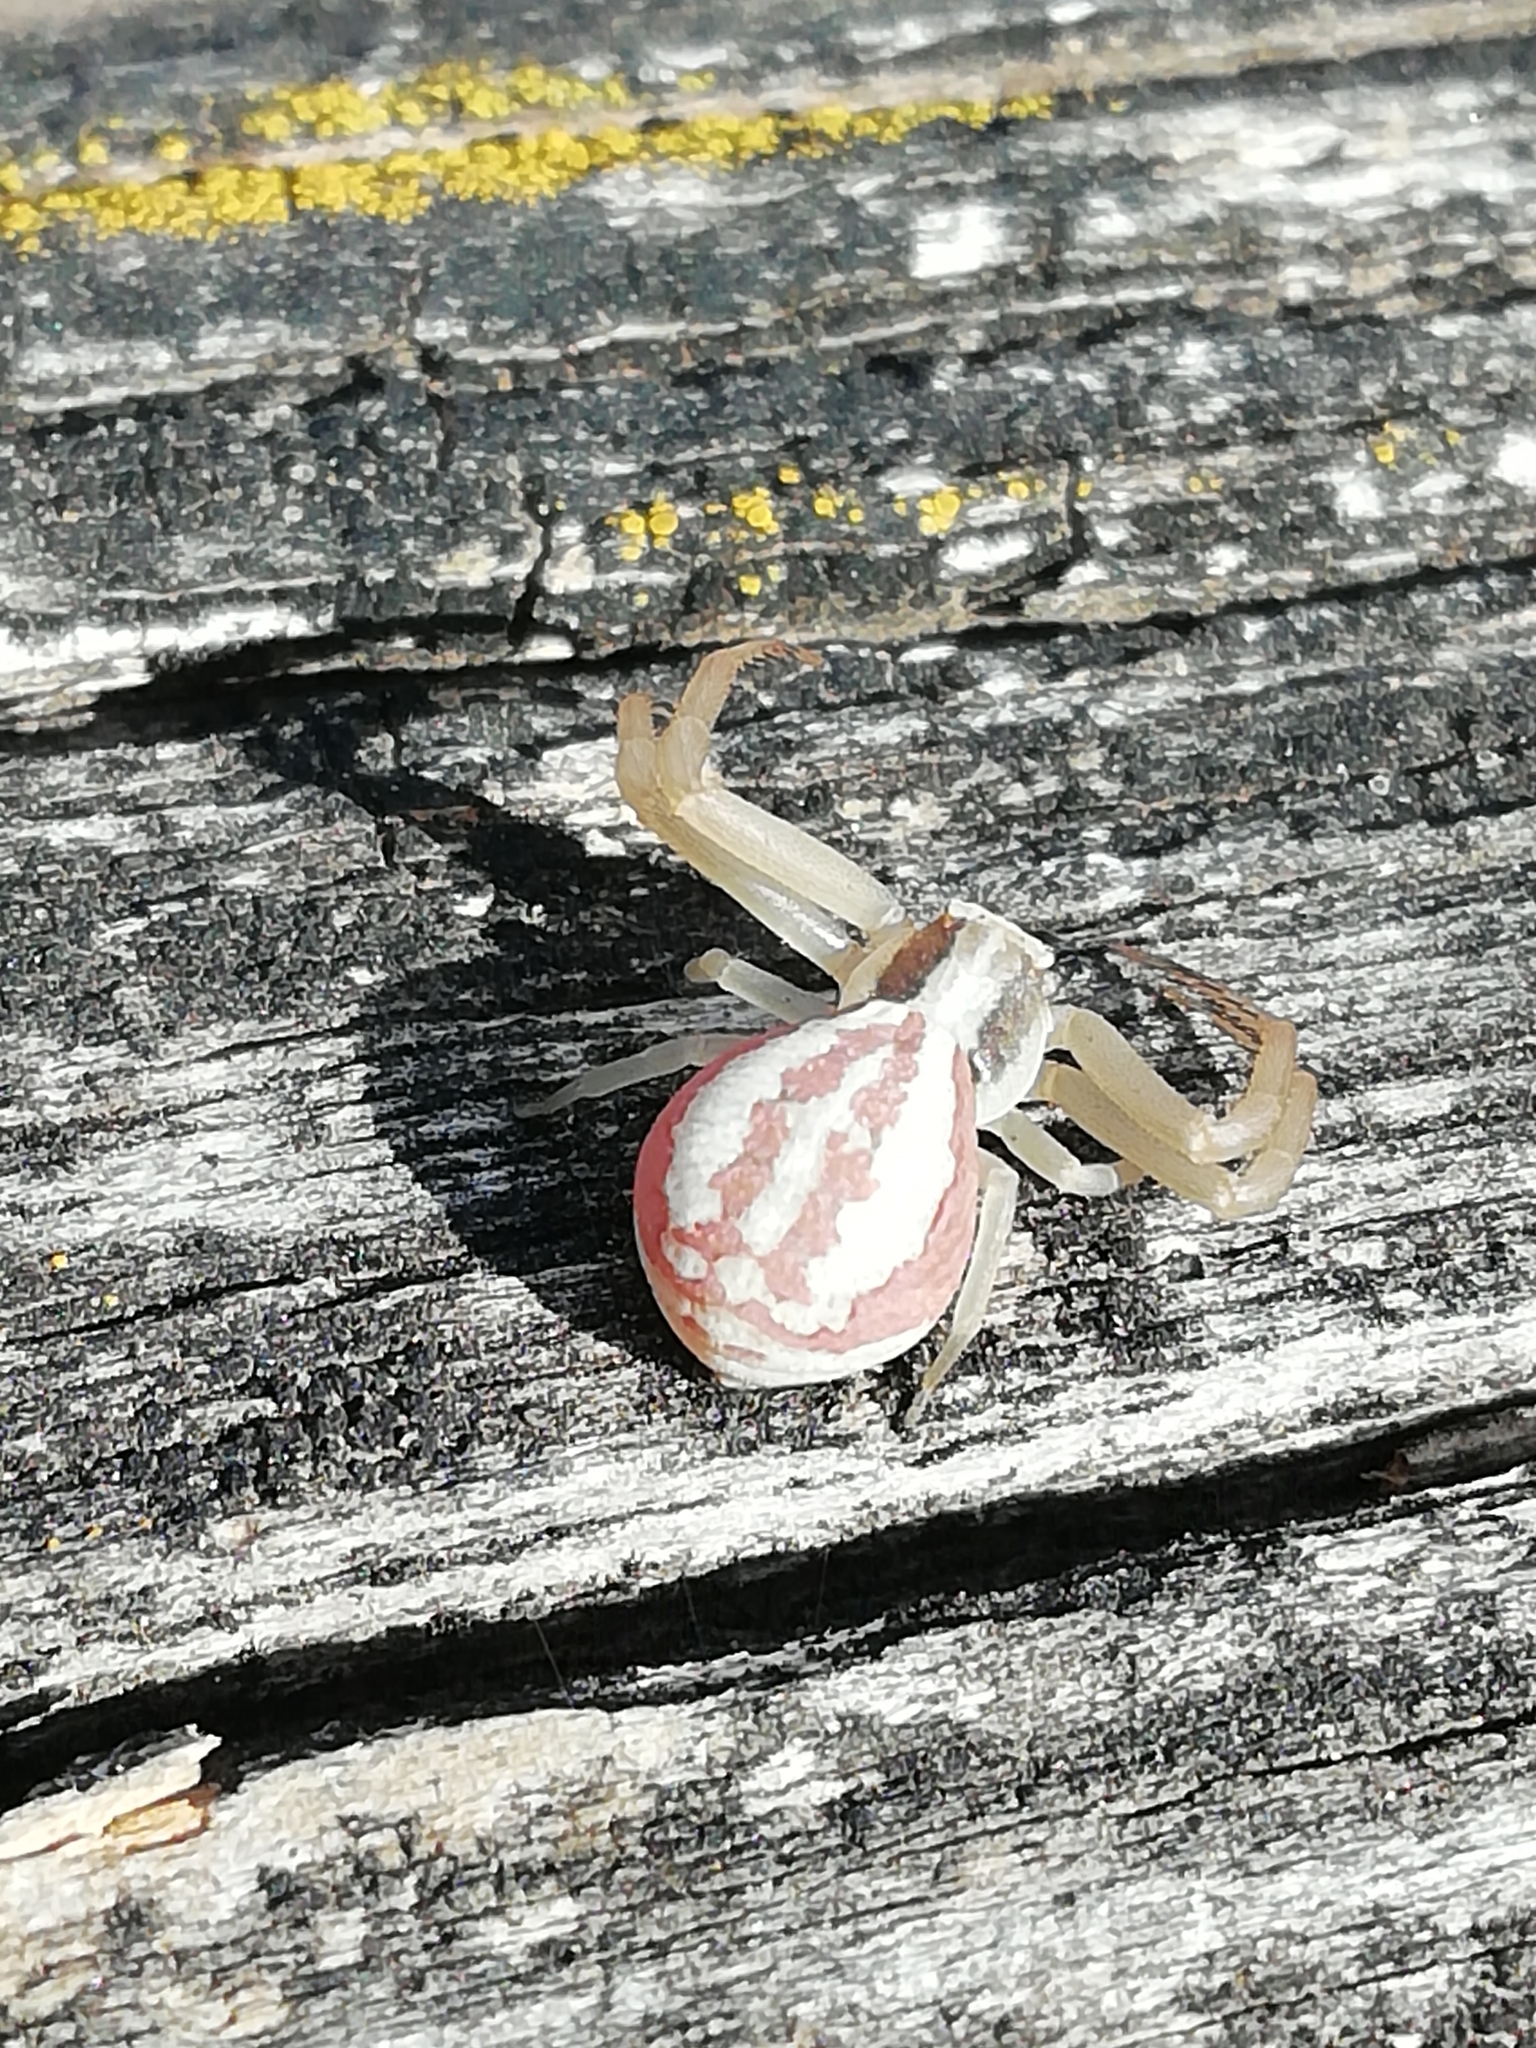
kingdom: Animalia
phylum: Arthropoda
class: Arachnida
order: Araneae
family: Thomisidae
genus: Runcinia
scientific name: Runcinia grammica
